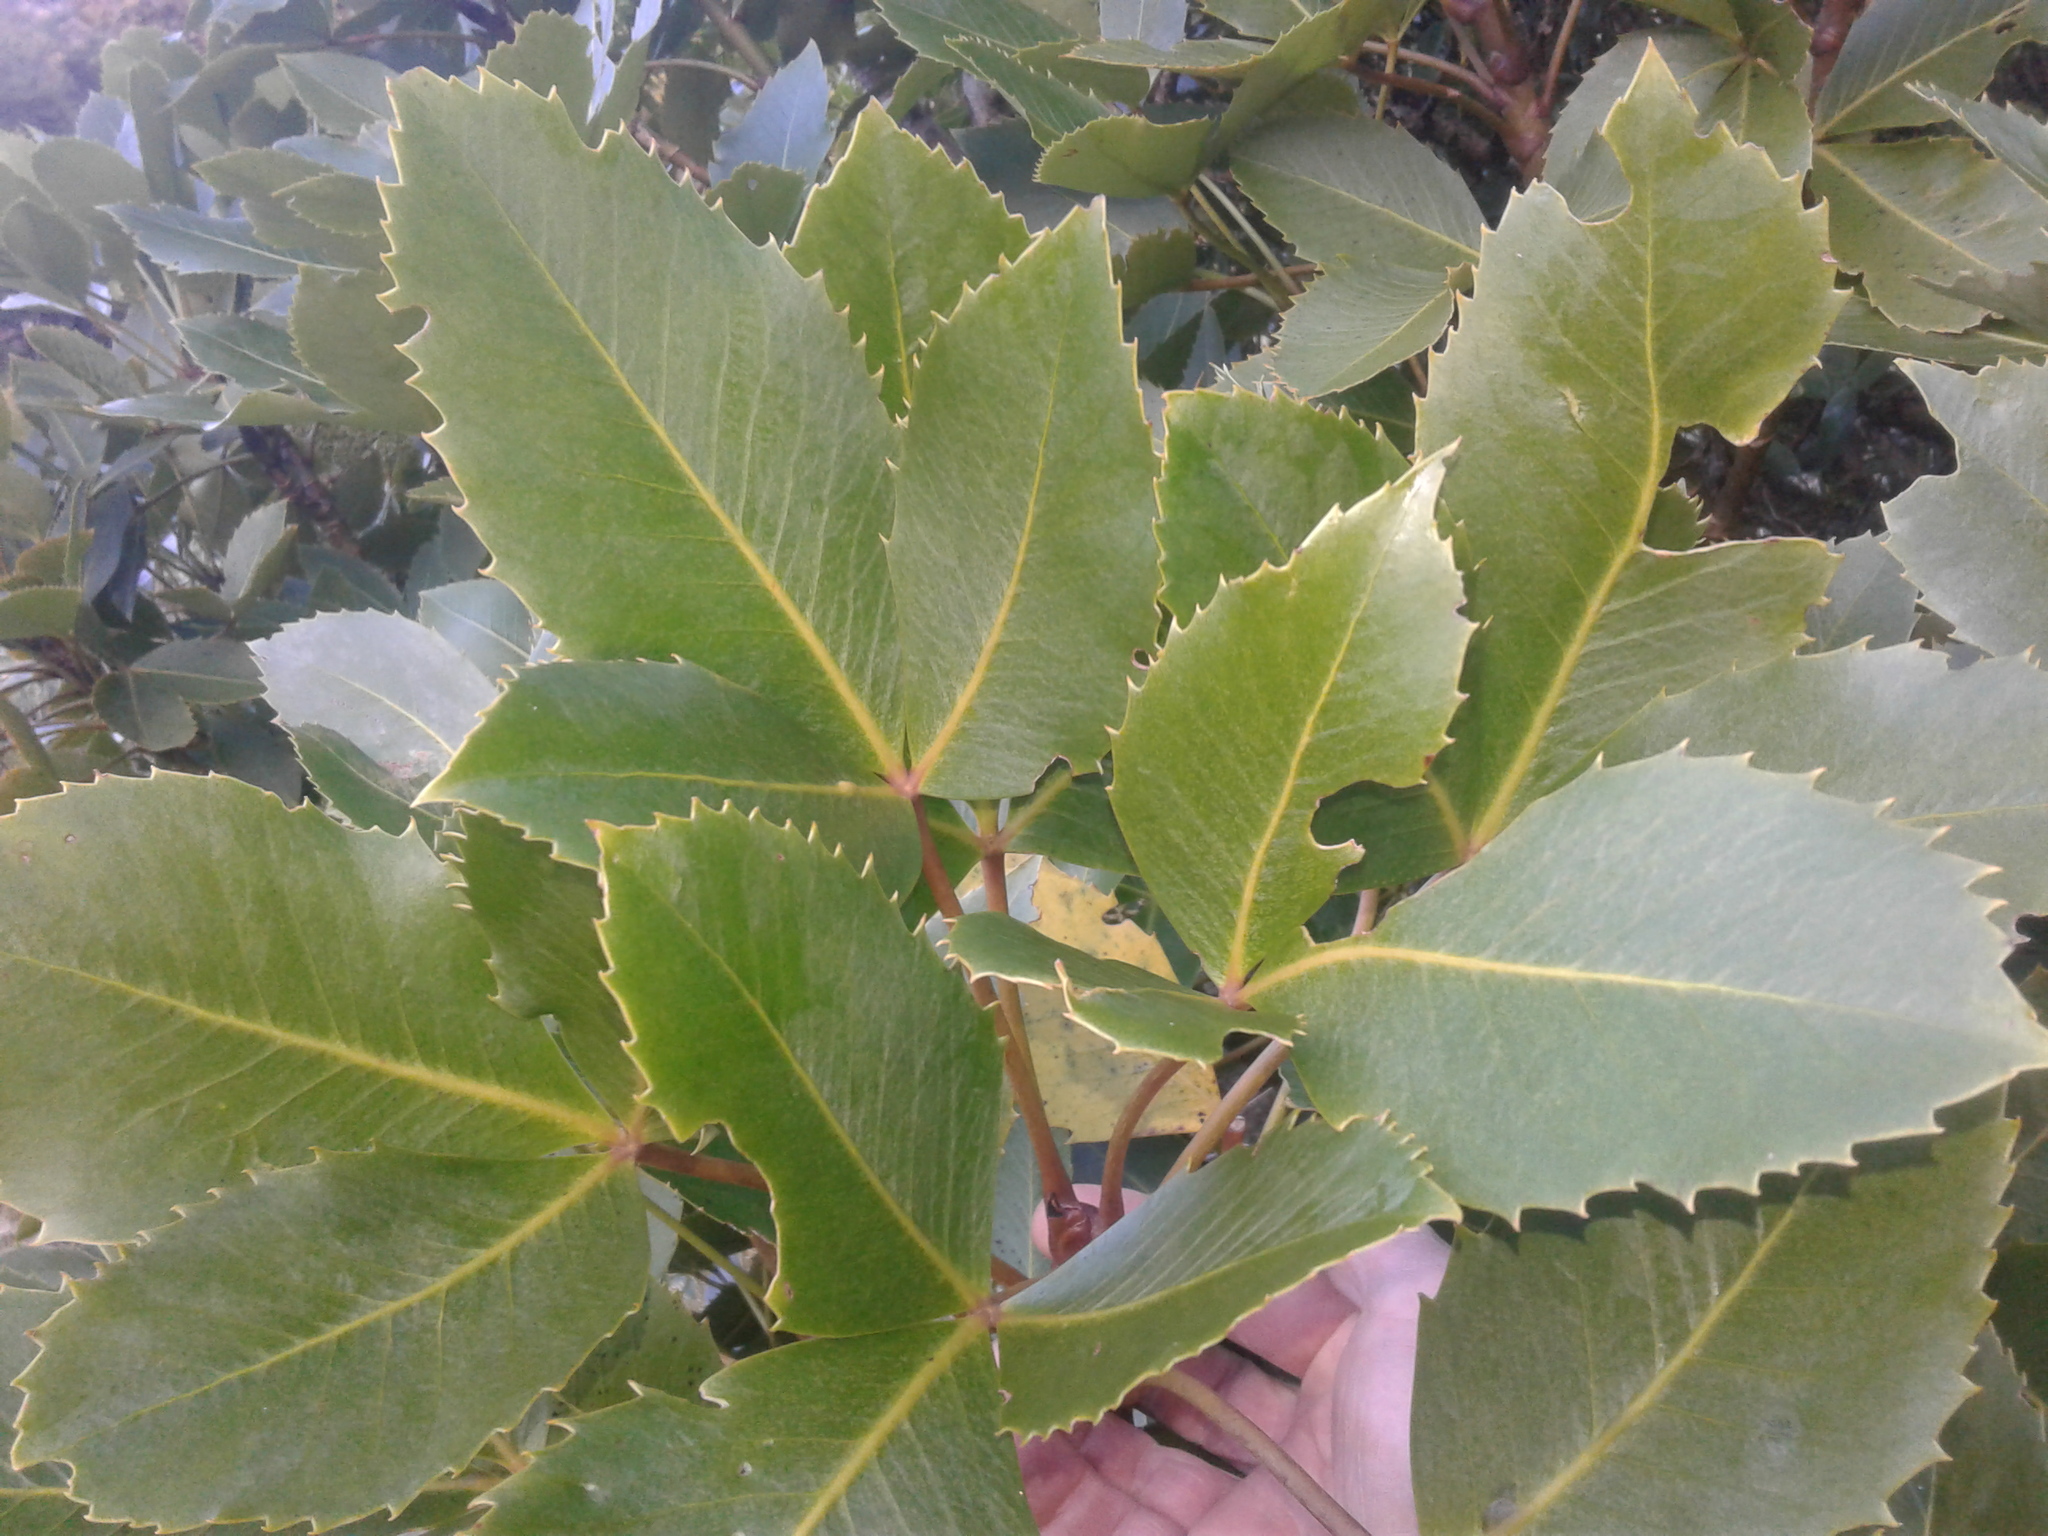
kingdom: Plantae
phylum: Tracheophyta
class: Magnoliopsida
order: Apiales
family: Araliaceae
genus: Neopanax
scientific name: Neopanax colensoi
